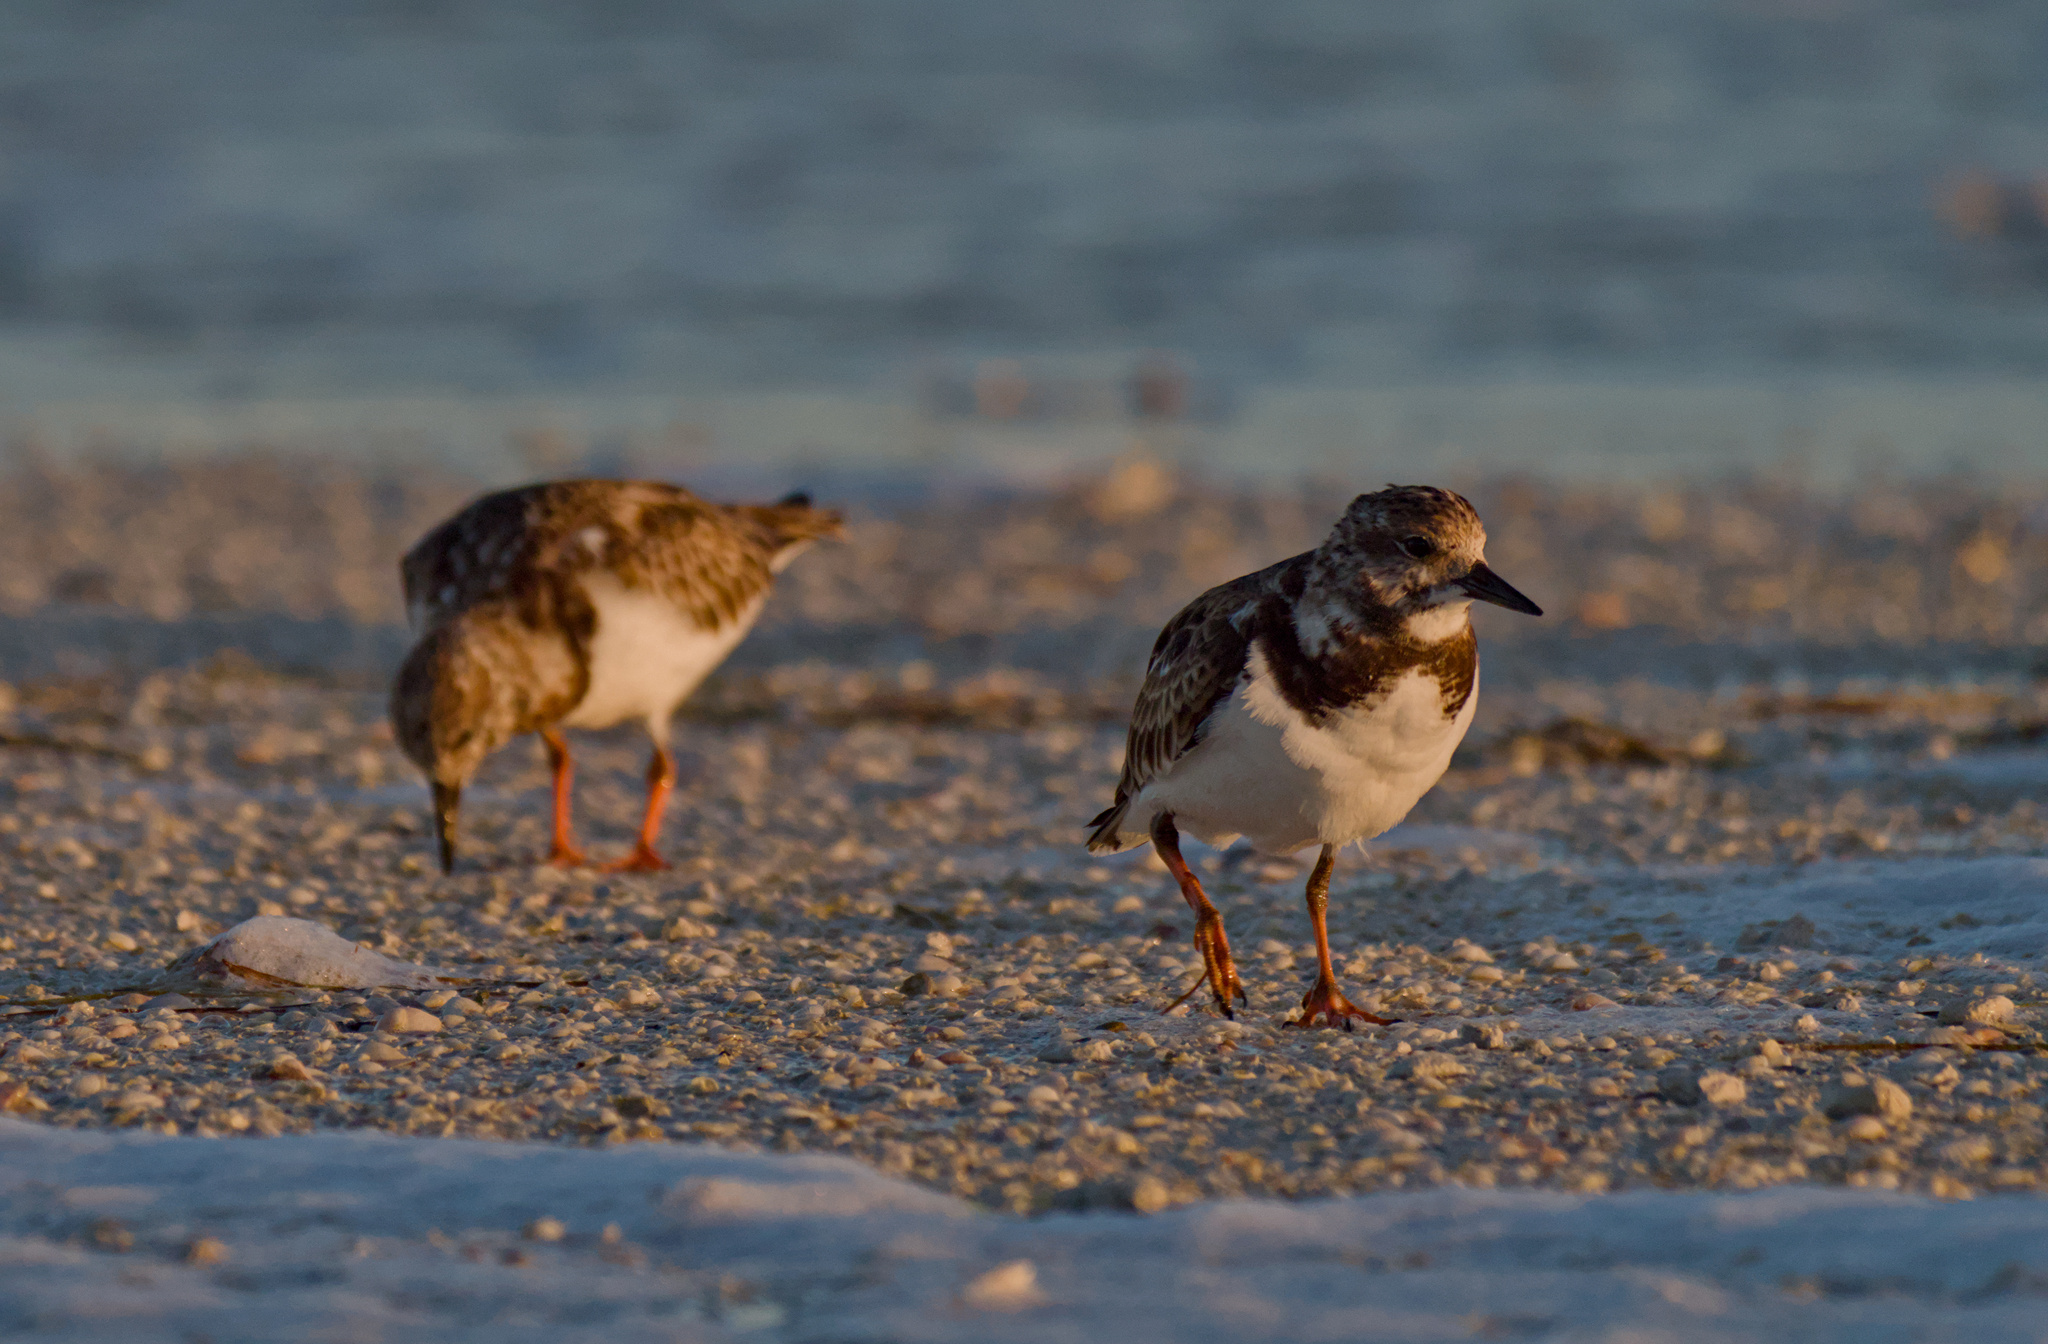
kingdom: Animalia
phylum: Chordata
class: Aves
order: Charadriiformes
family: Scolopacidae
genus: Arenaria
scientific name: Arenaria interpres
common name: Ruddy turnstone
